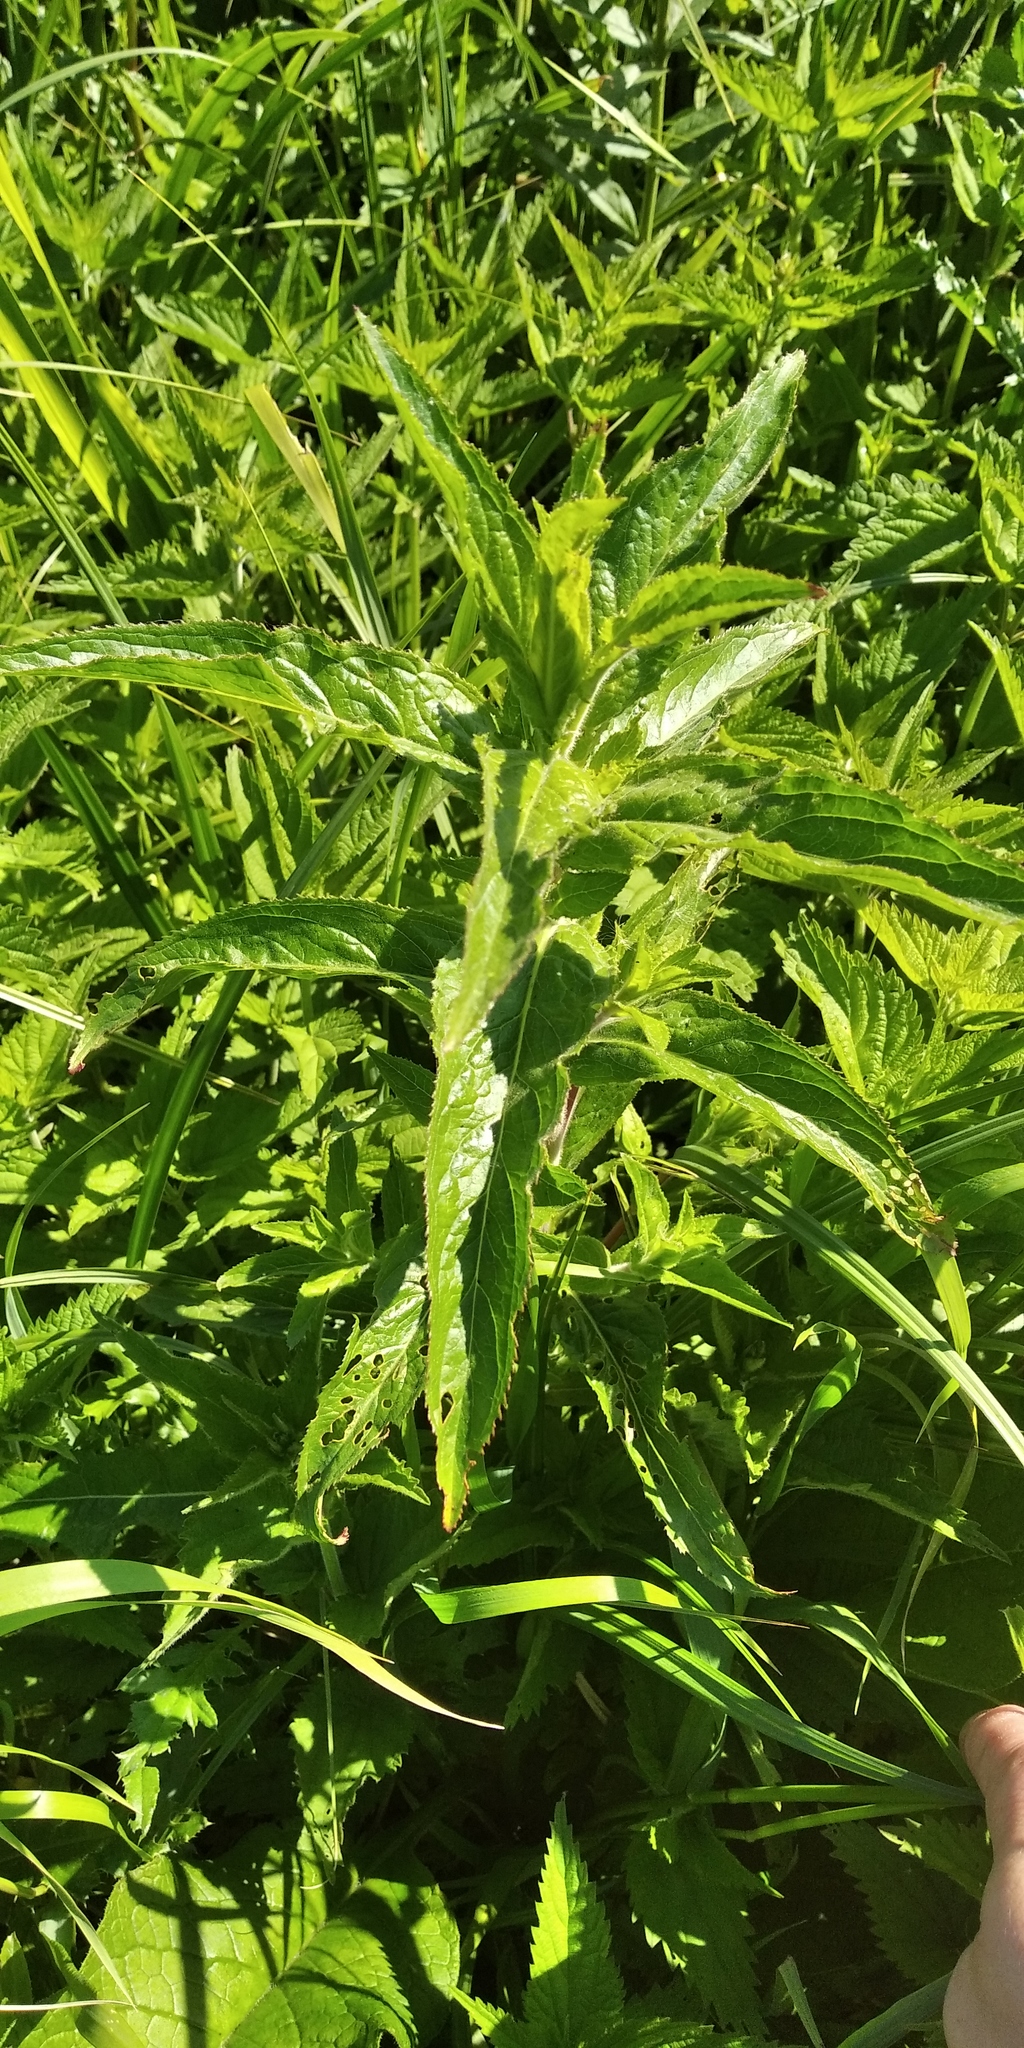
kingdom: Plantae
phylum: Tracheophyta
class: Magnoliopsida
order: Myrtales
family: Onagraceae
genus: Epilobium
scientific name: Epilobium hirsutum
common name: Great willowherb
